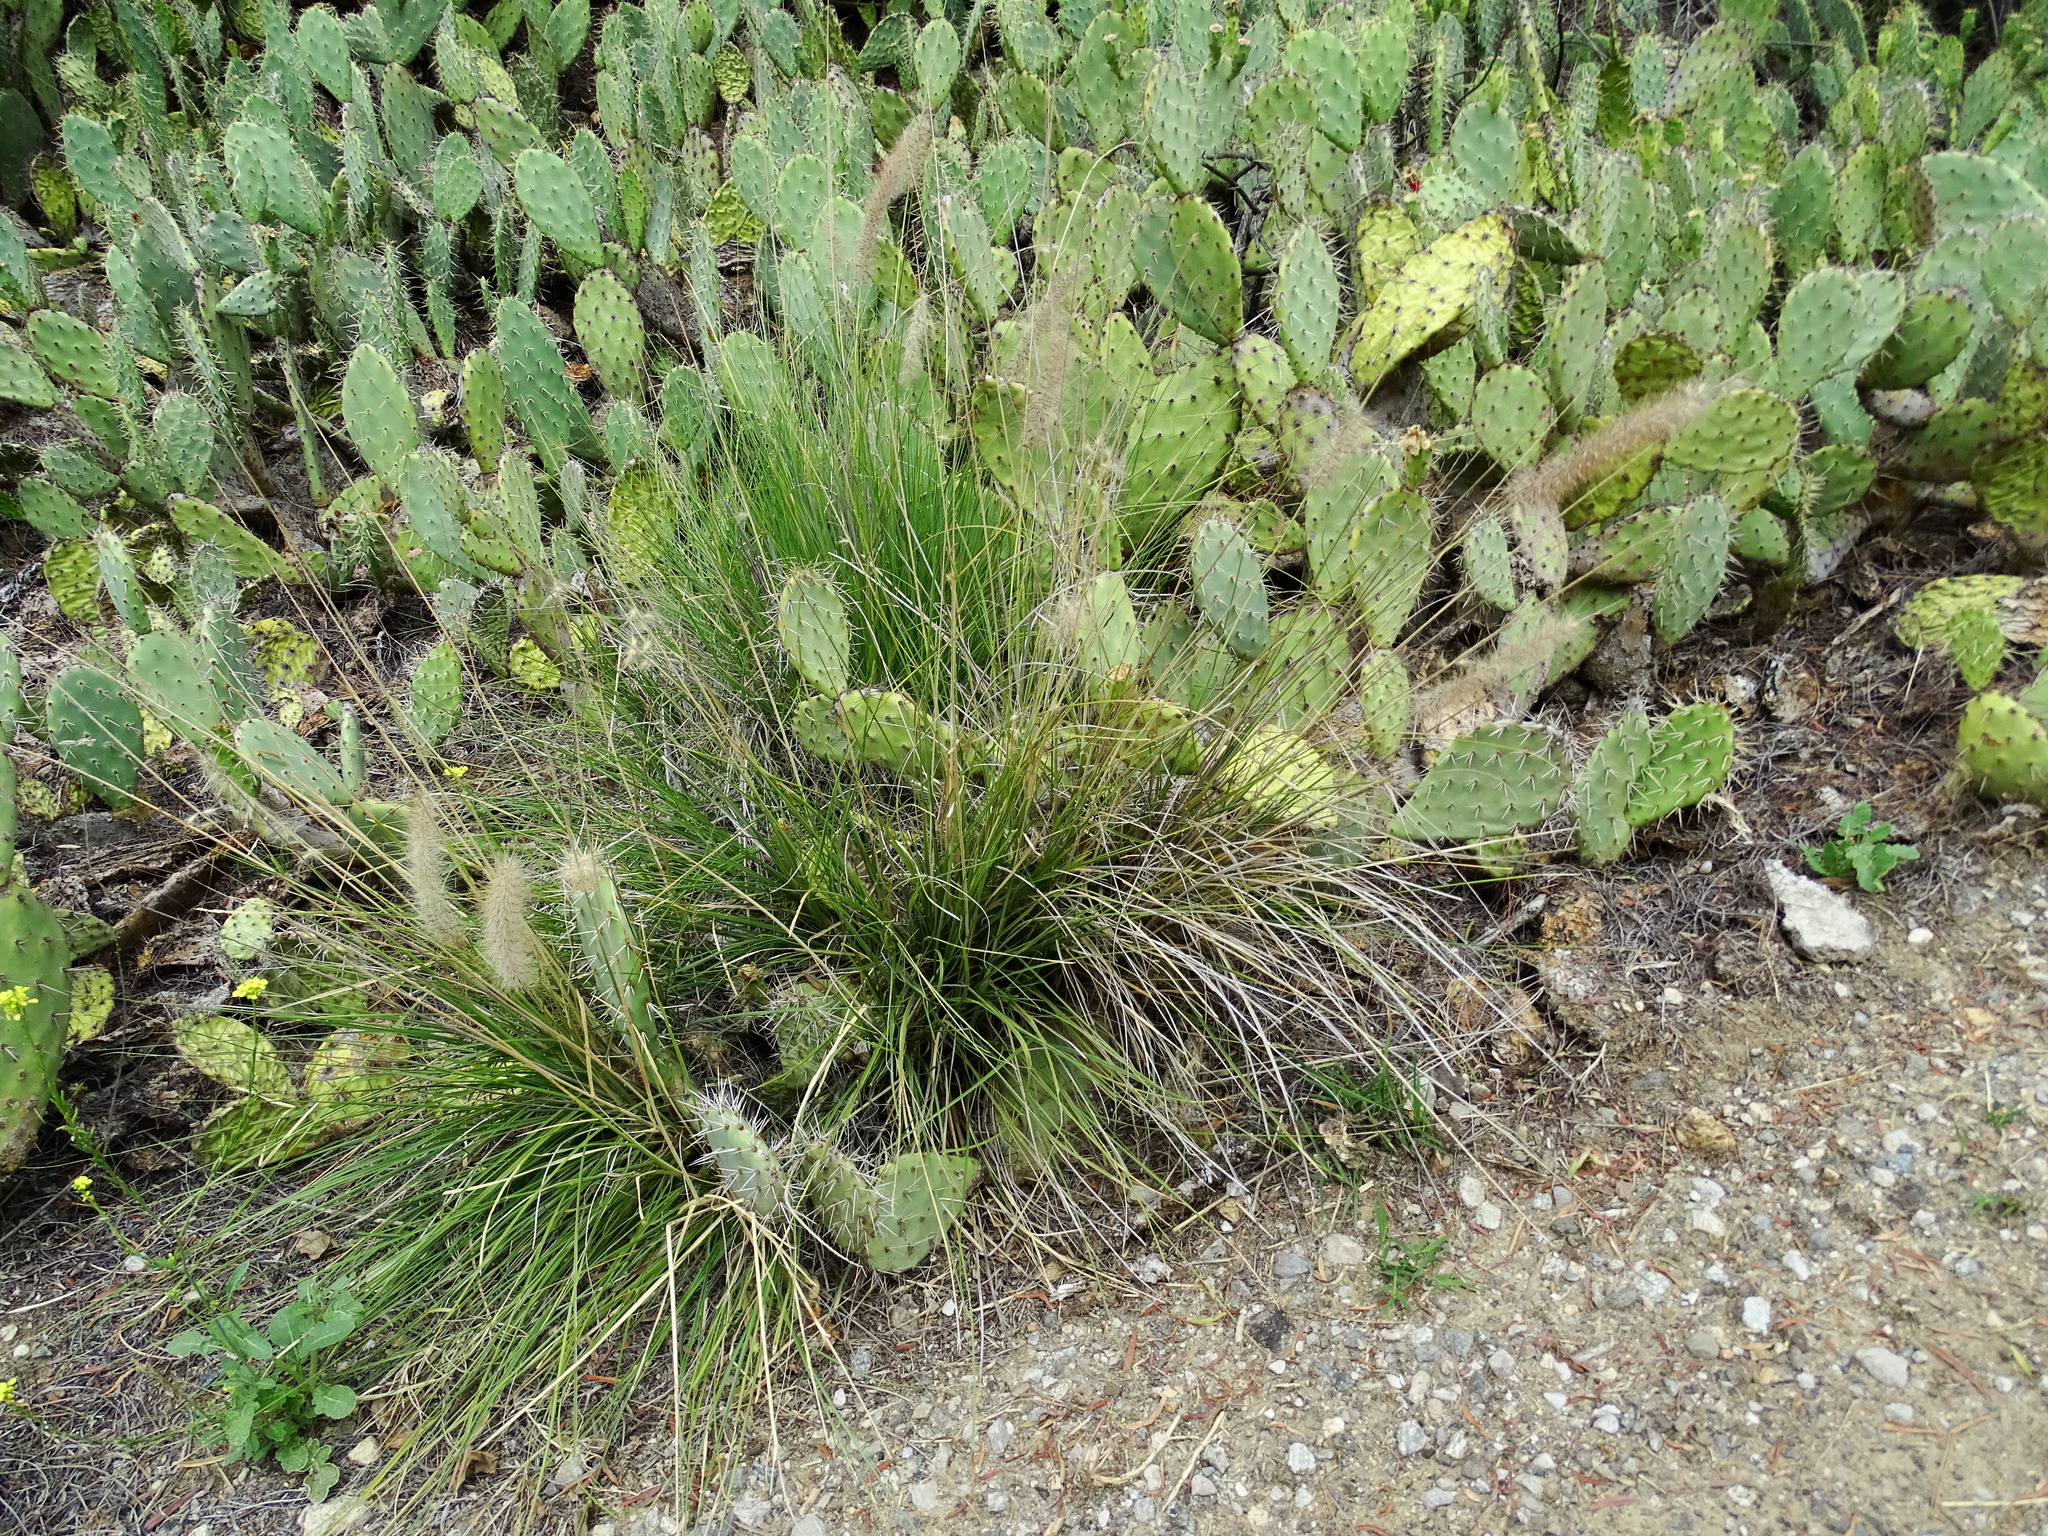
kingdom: Plantae
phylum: Tracheophyta
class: Liliopsida
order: Poales
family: Poaceae
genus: Cenchrus
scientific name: Cenchrus setaceus
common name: Crimson fountaingrass
